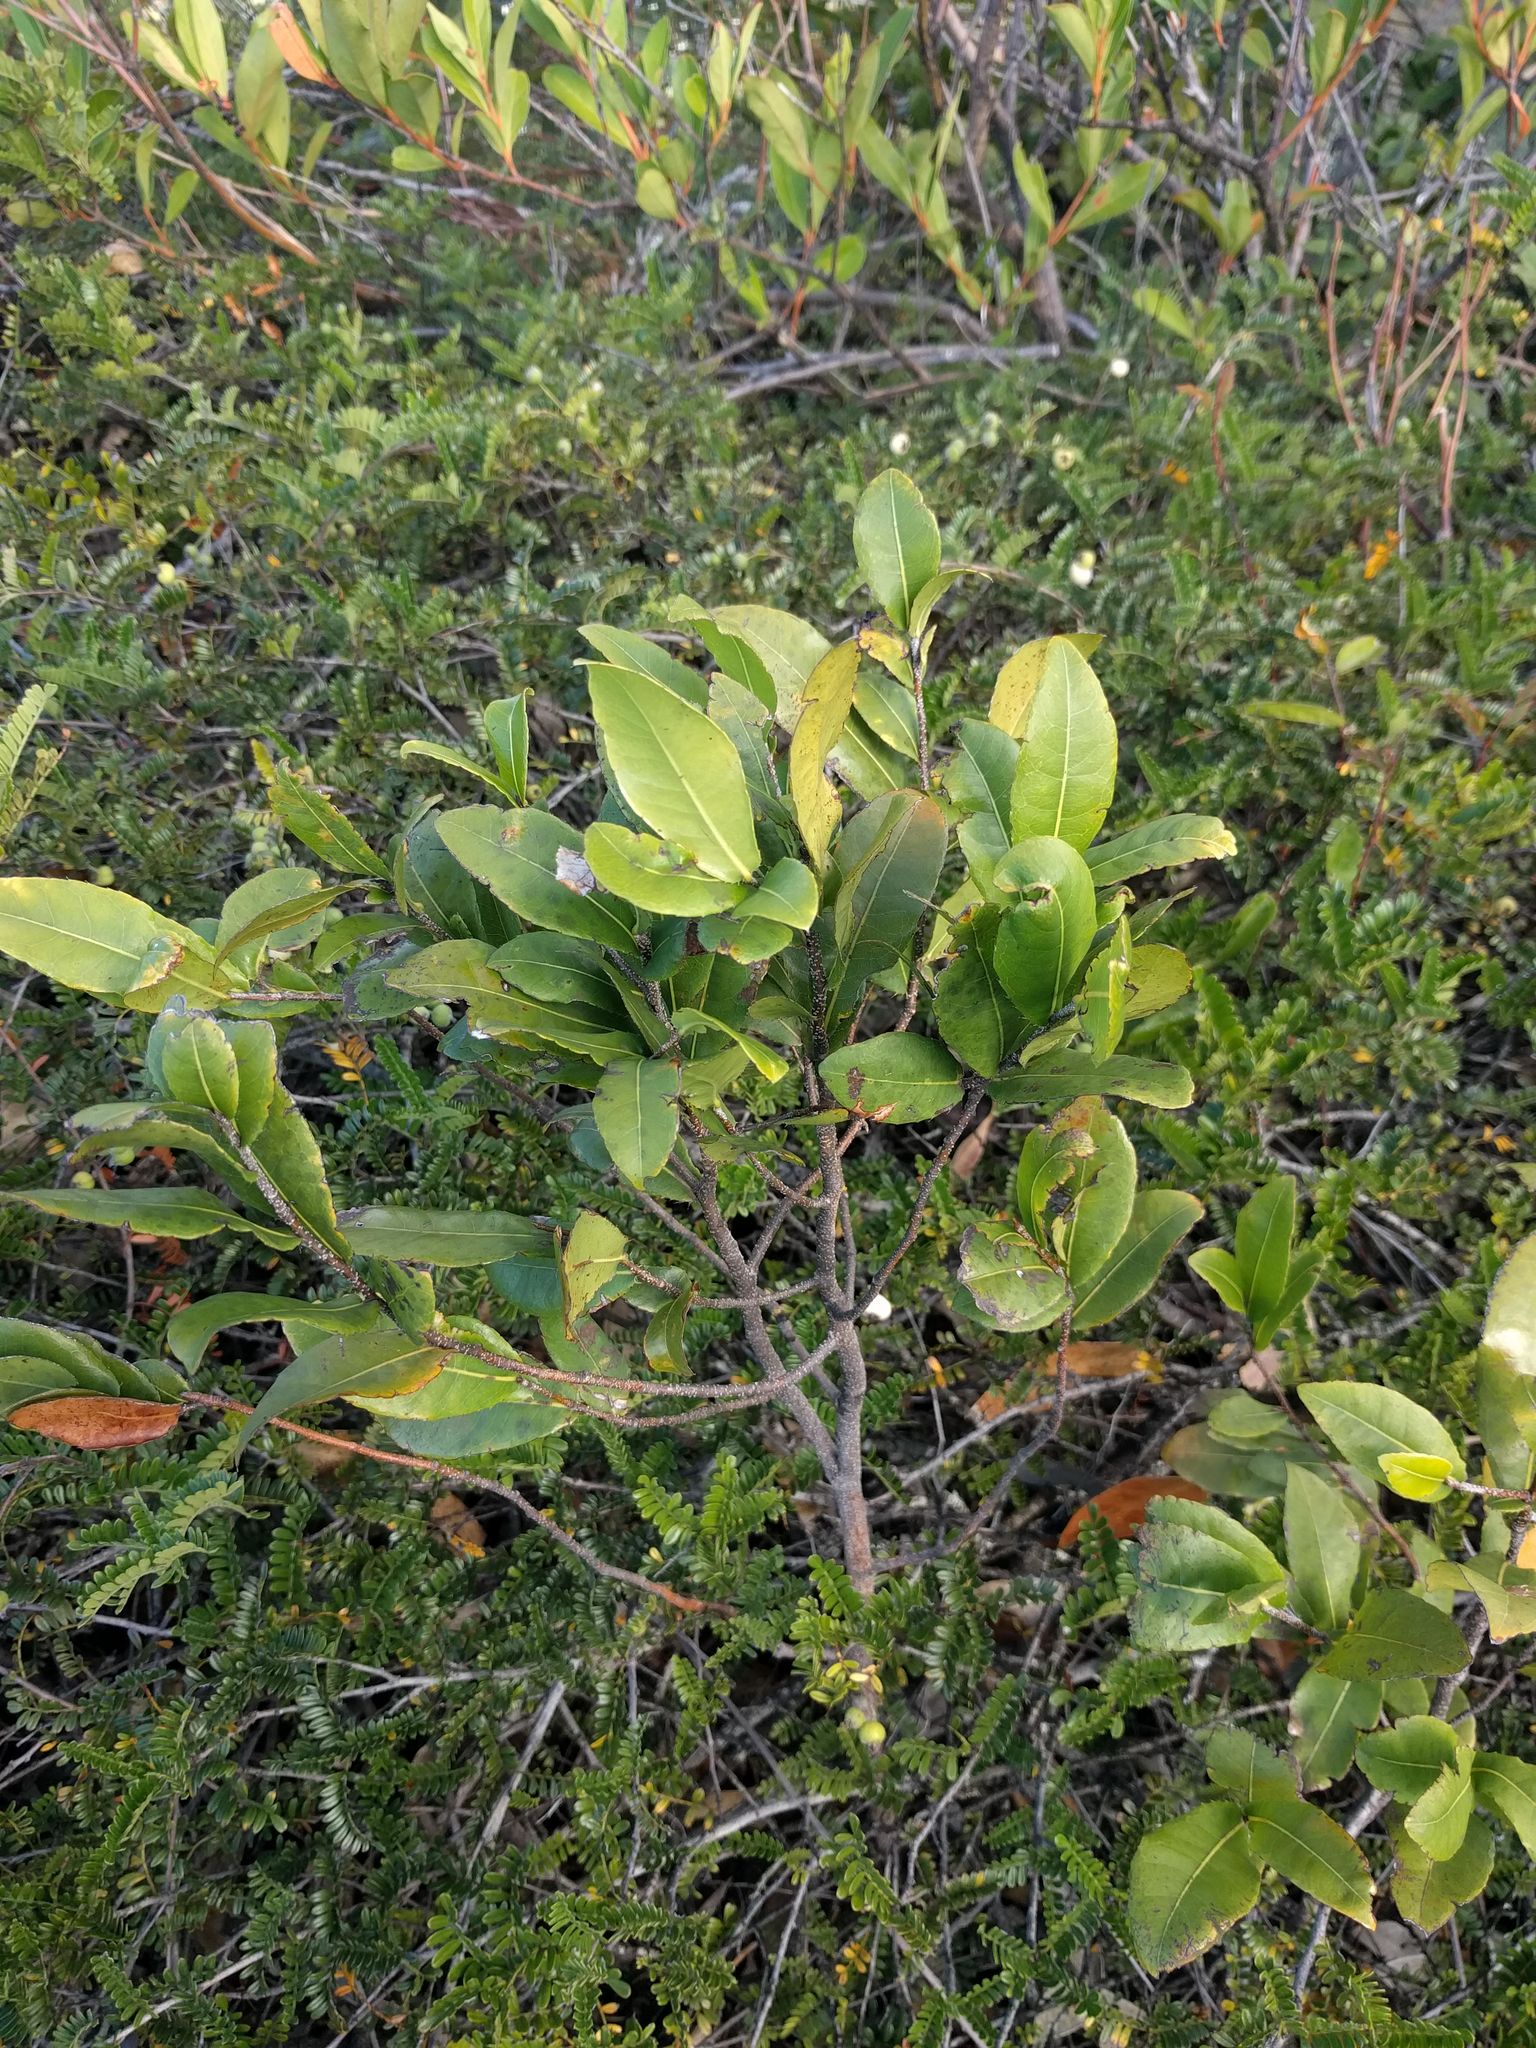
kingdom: Plantae
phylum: Tracheophyta
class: Magnoliopsida
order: Malpighiales
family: Ochnaceae
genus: Ochna
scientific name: Ochna thomasiana
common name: Thomas' bird's-eye bush
